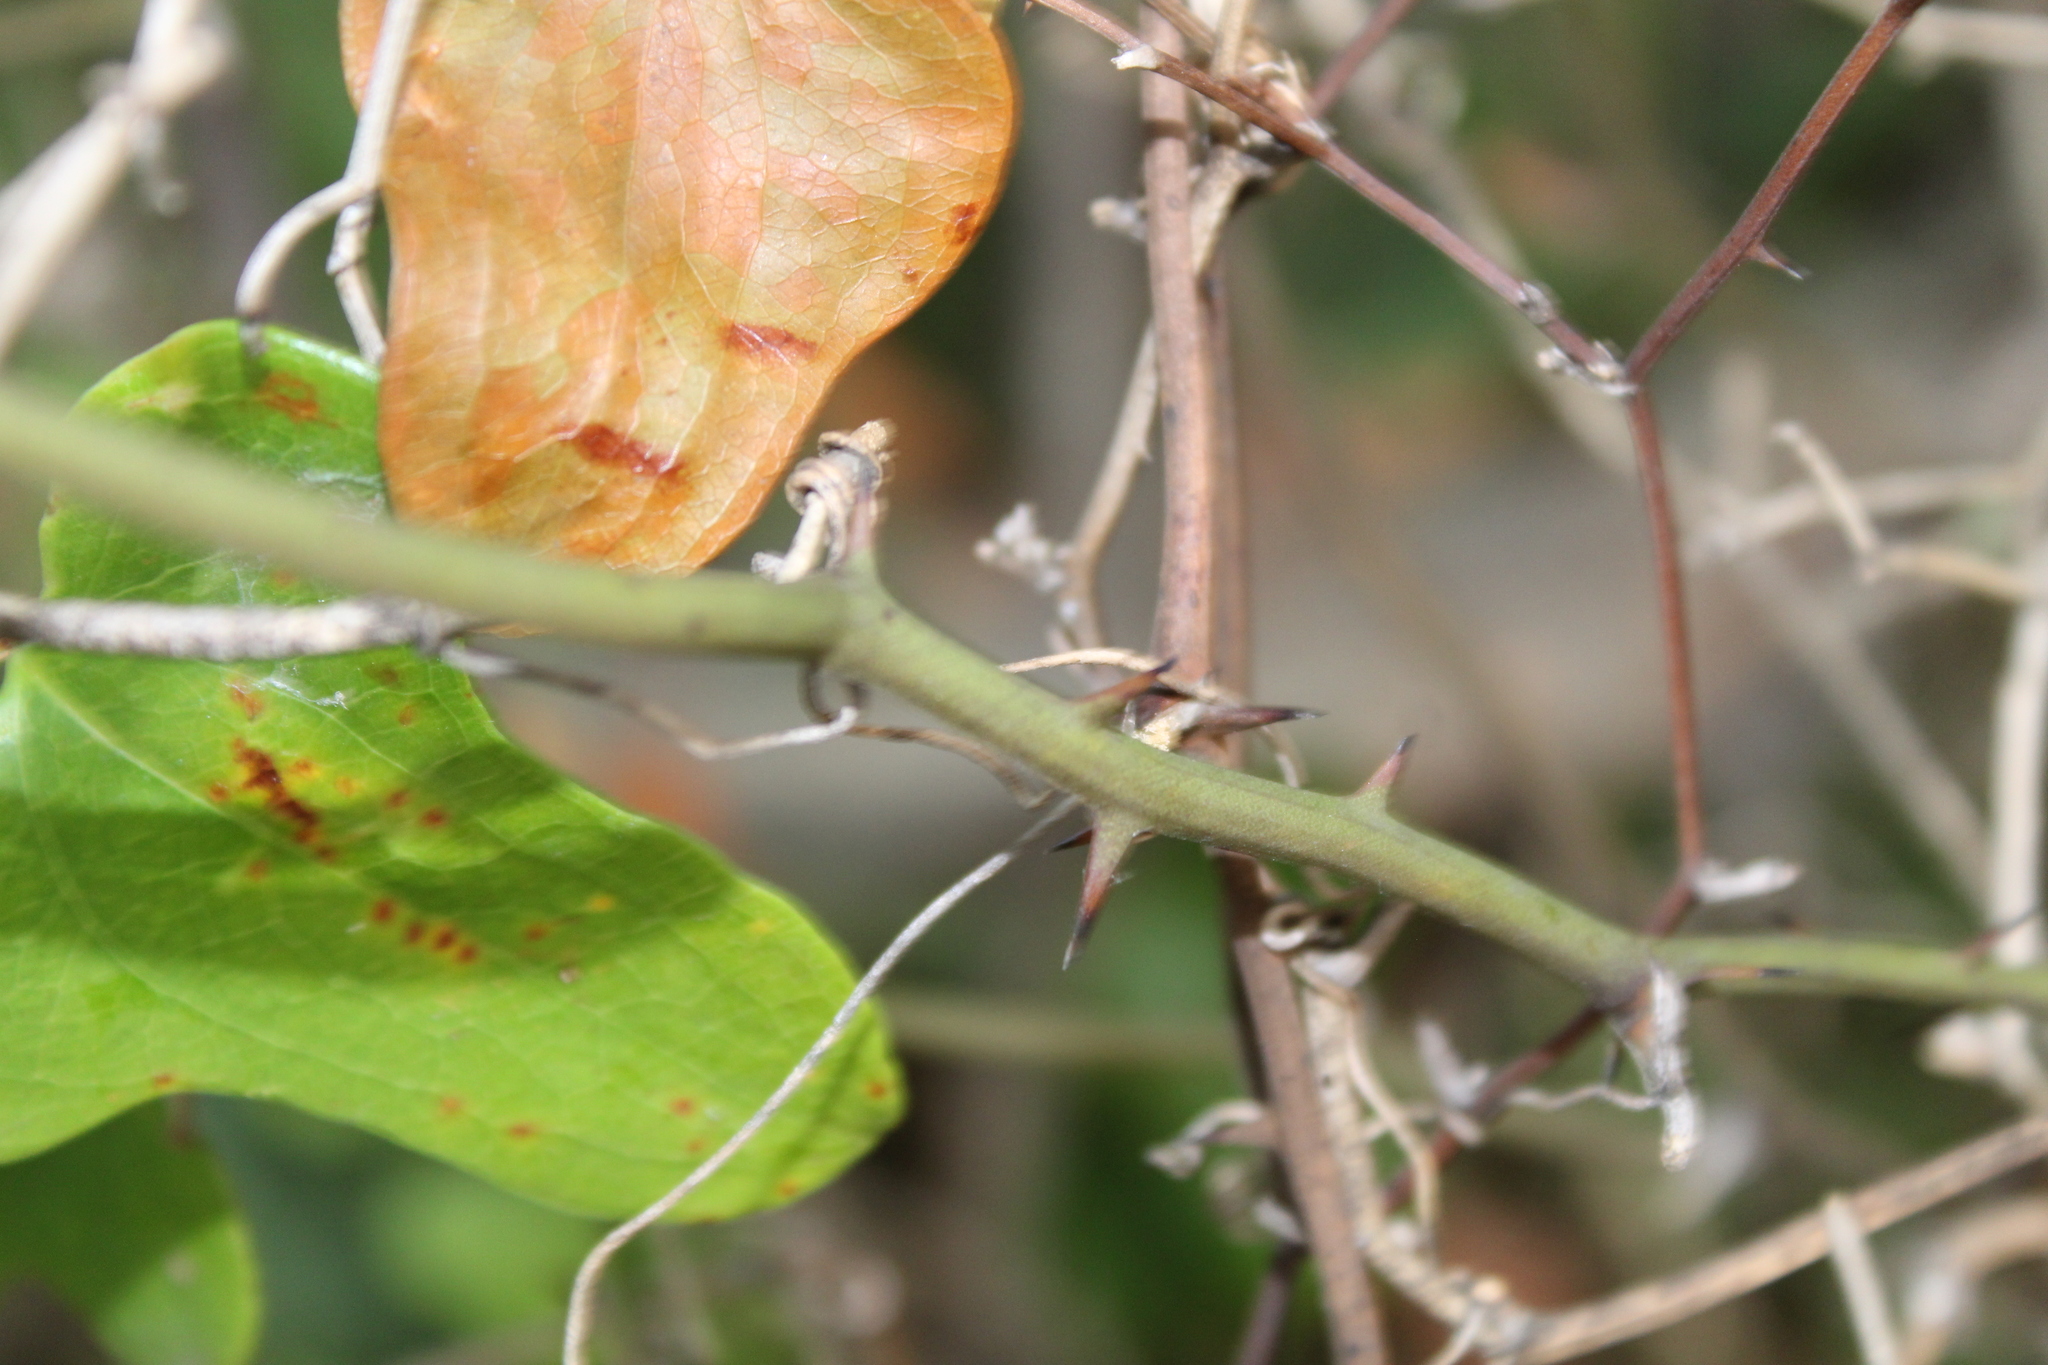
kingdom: Plantae
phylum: Tracheophyta
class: Liliopsida
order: Liliales
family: Smilacaceae
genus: Smilax
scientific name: Smilax bona-nox
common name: Catbrier
